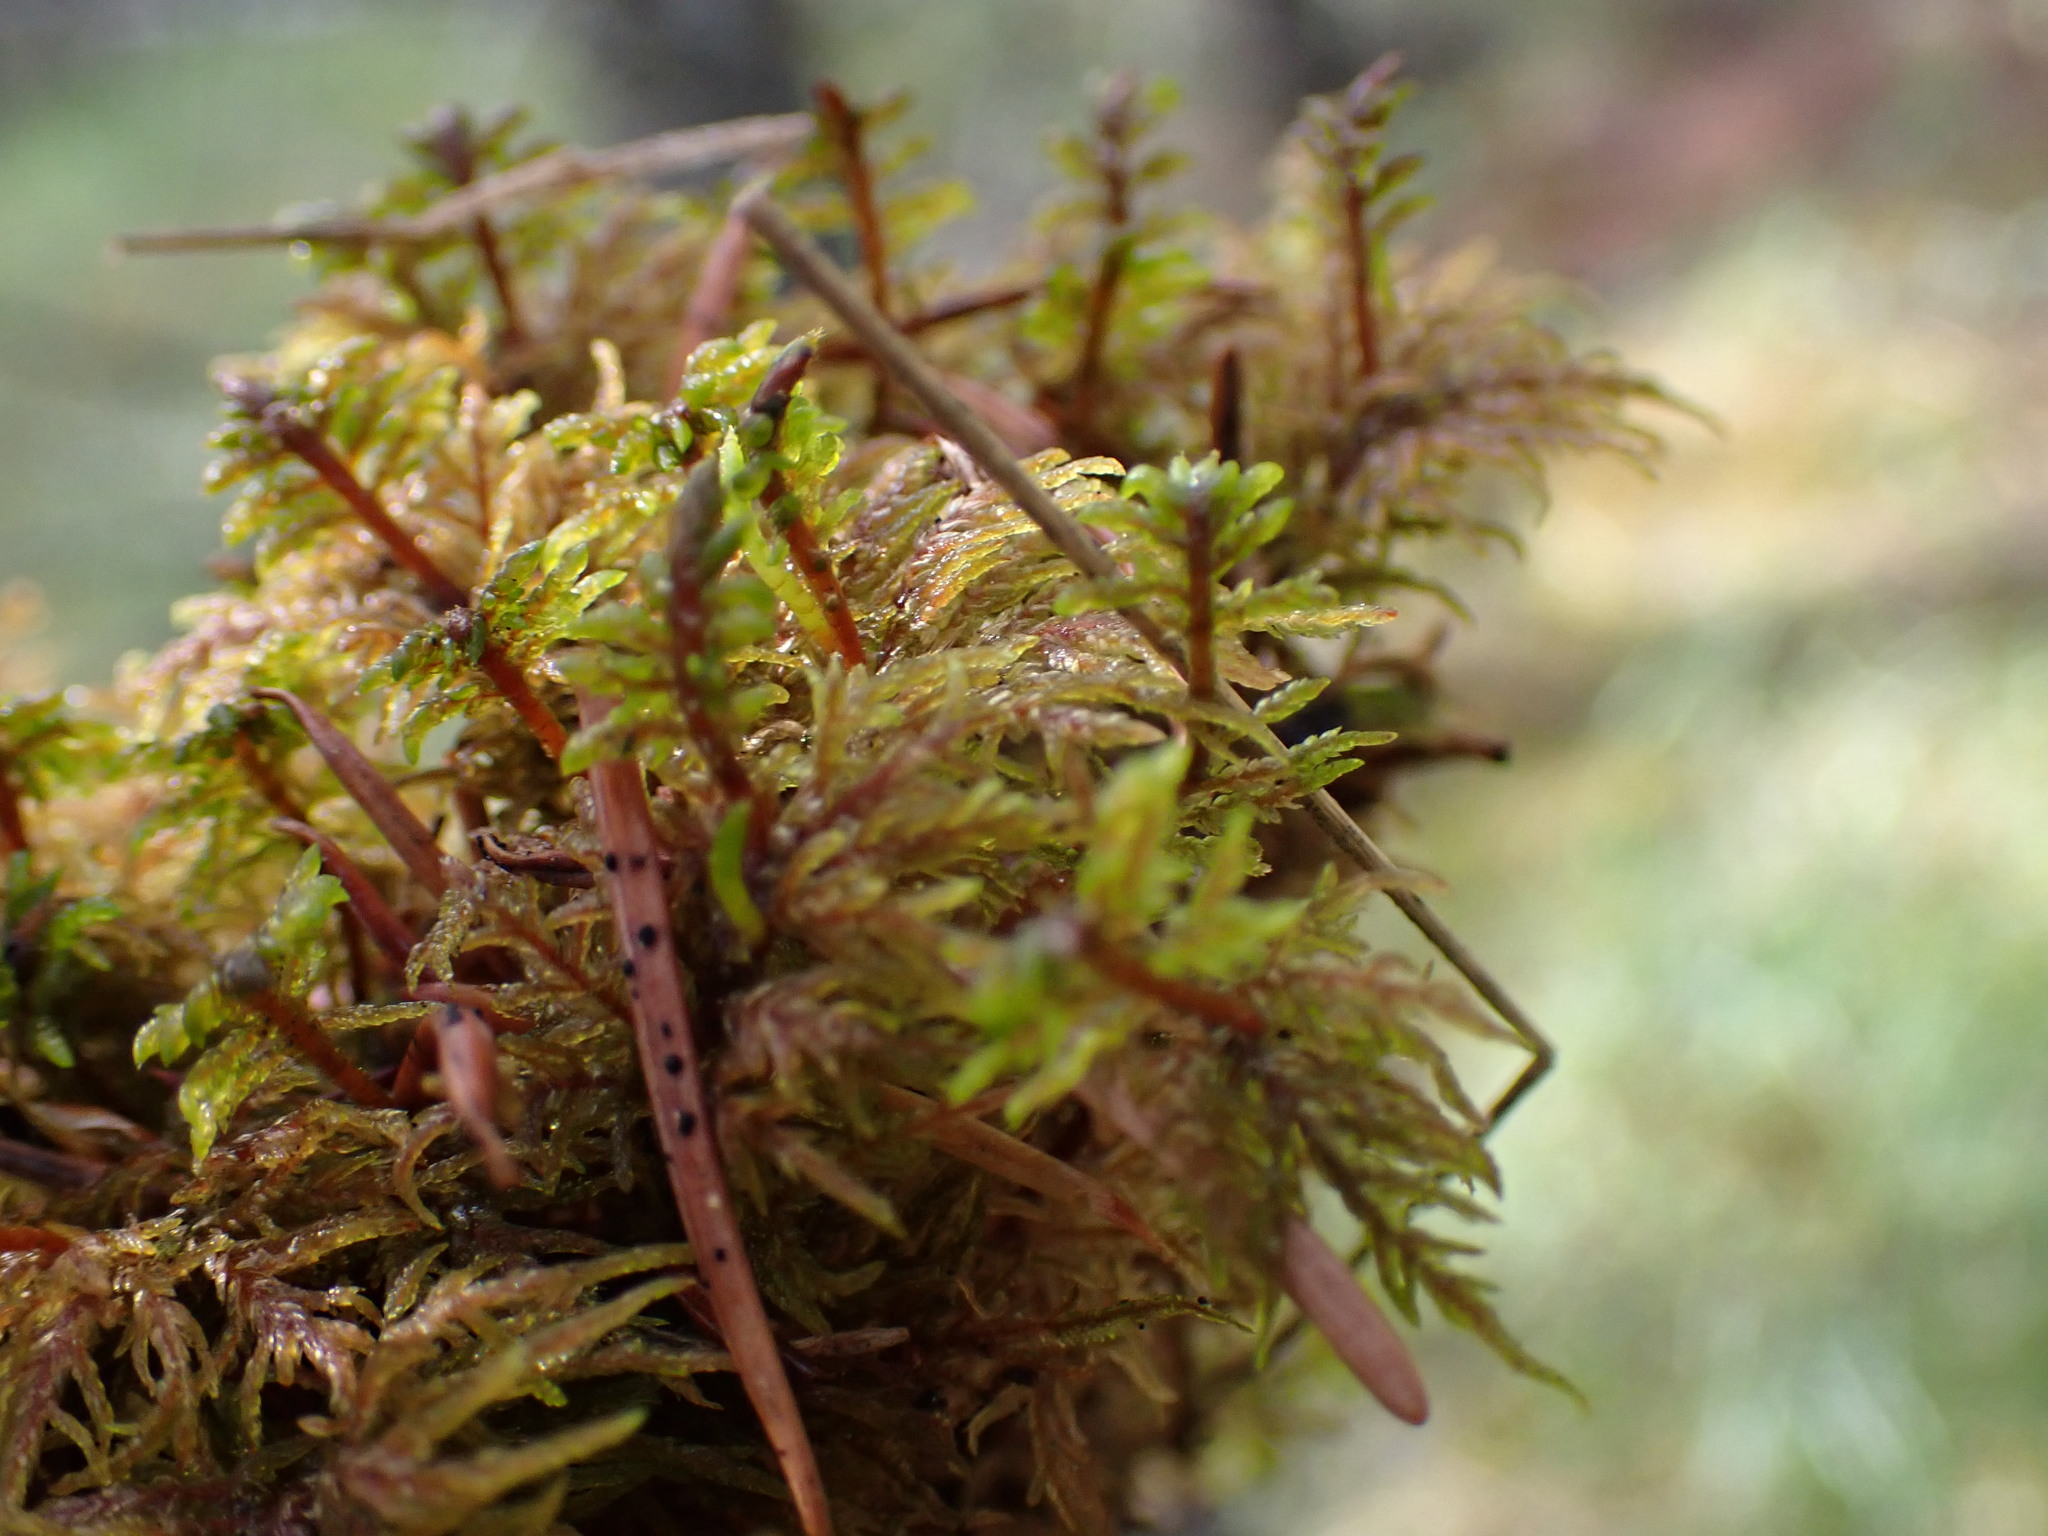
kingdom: Plantae
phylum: Bryophyta
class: Bryopsida
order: Hypnales
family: Hylocomiaceae
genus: Hylocomium
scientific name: Hylocomium splendens
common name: Stairstep moss
